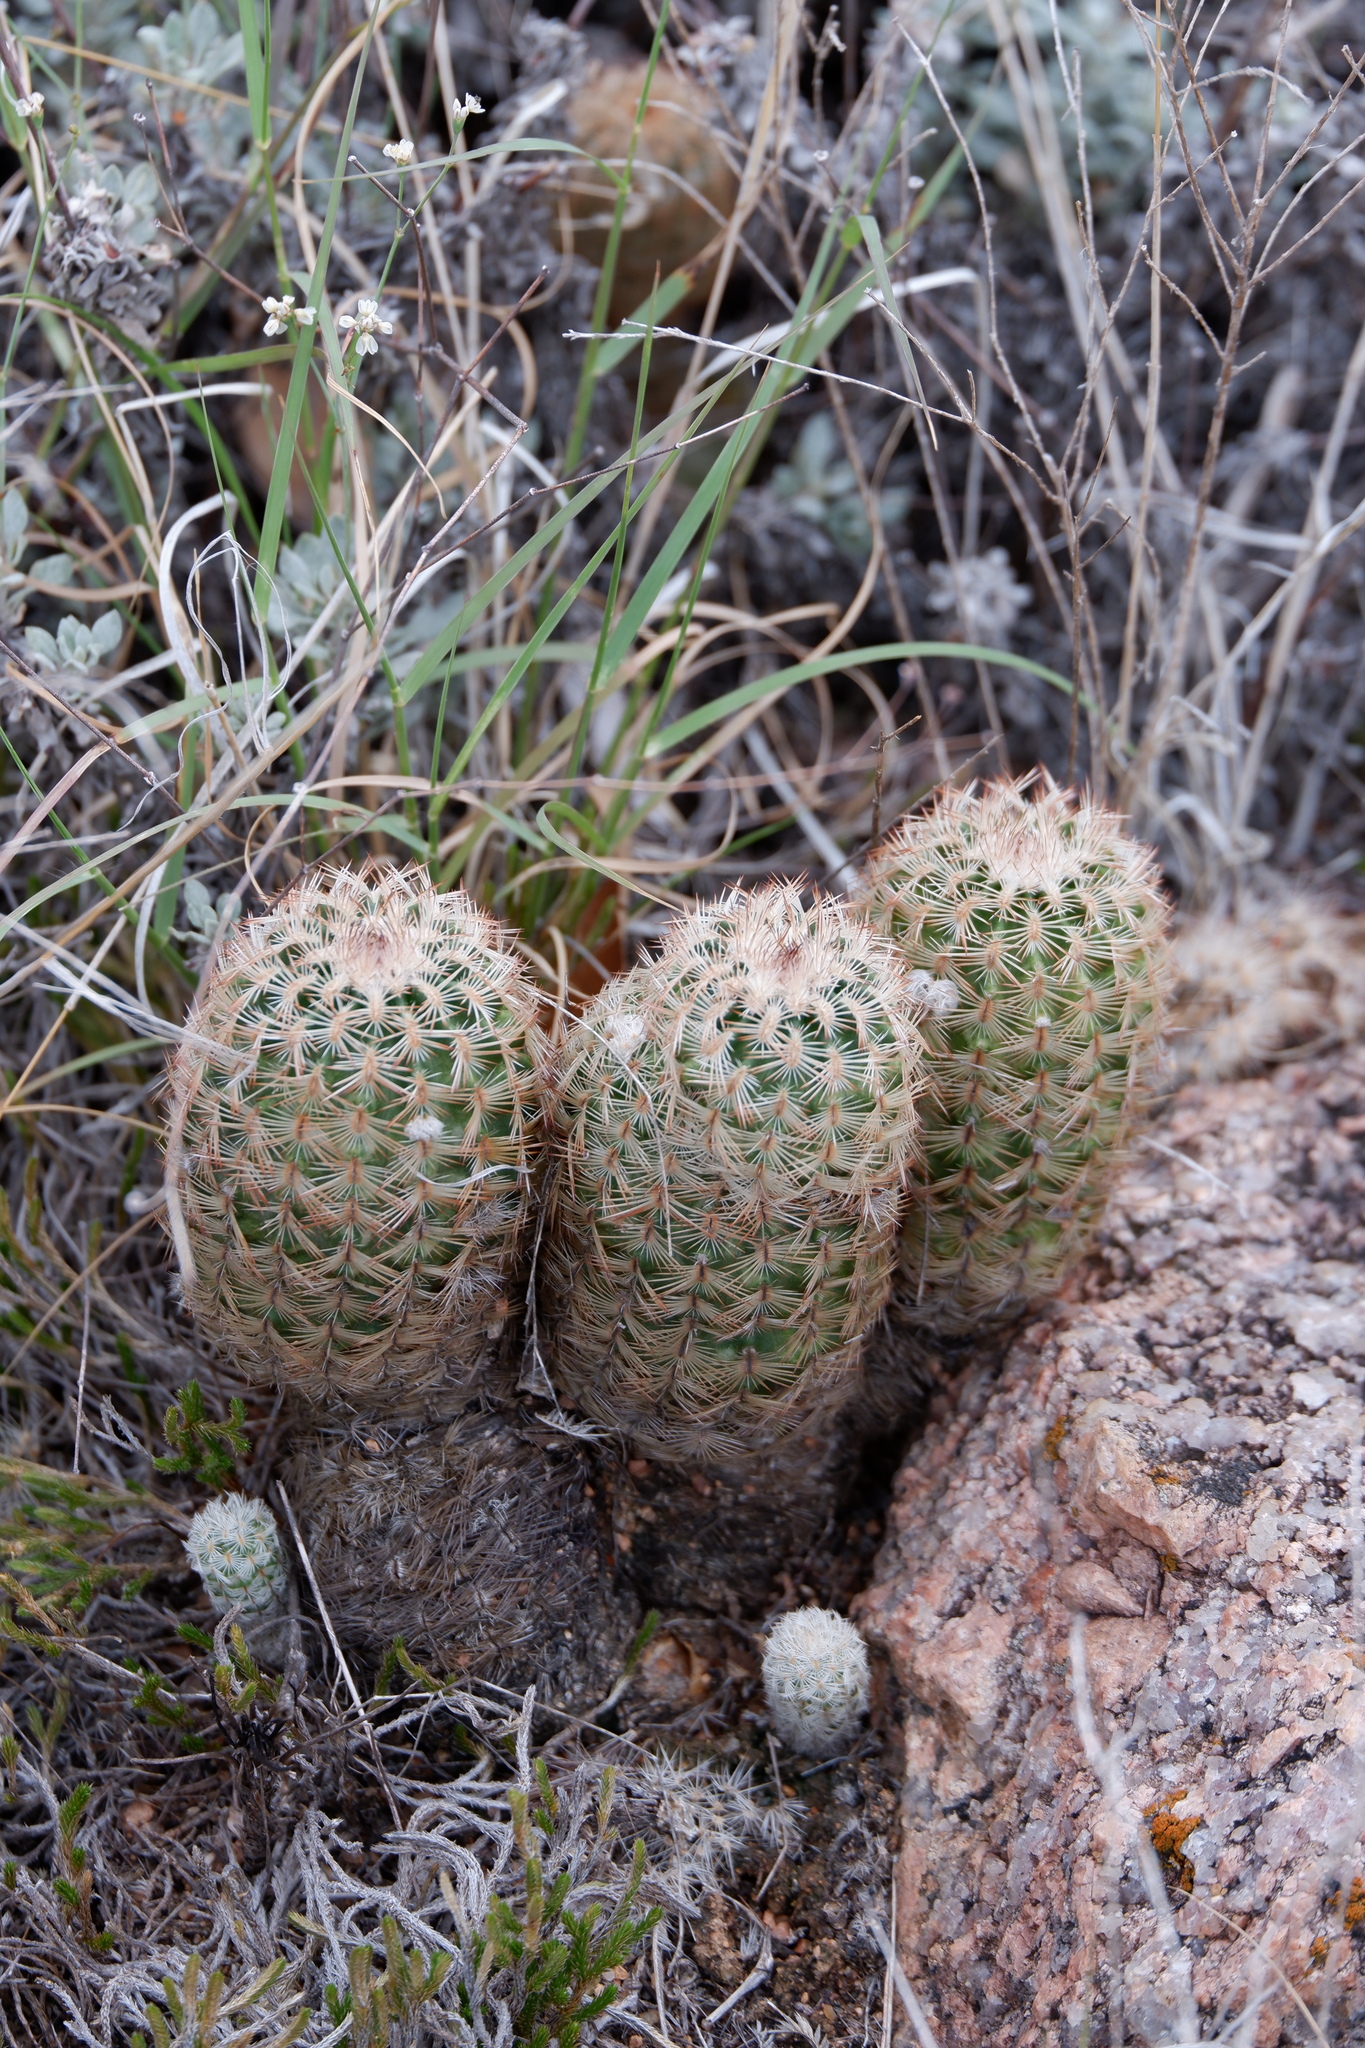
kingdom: Plantae
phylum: Tracheophyta
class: Magnoliopsida
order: Caryophyllales
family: Polygonaceae
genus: Eriogonum
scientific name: Eriogonum graniticum
